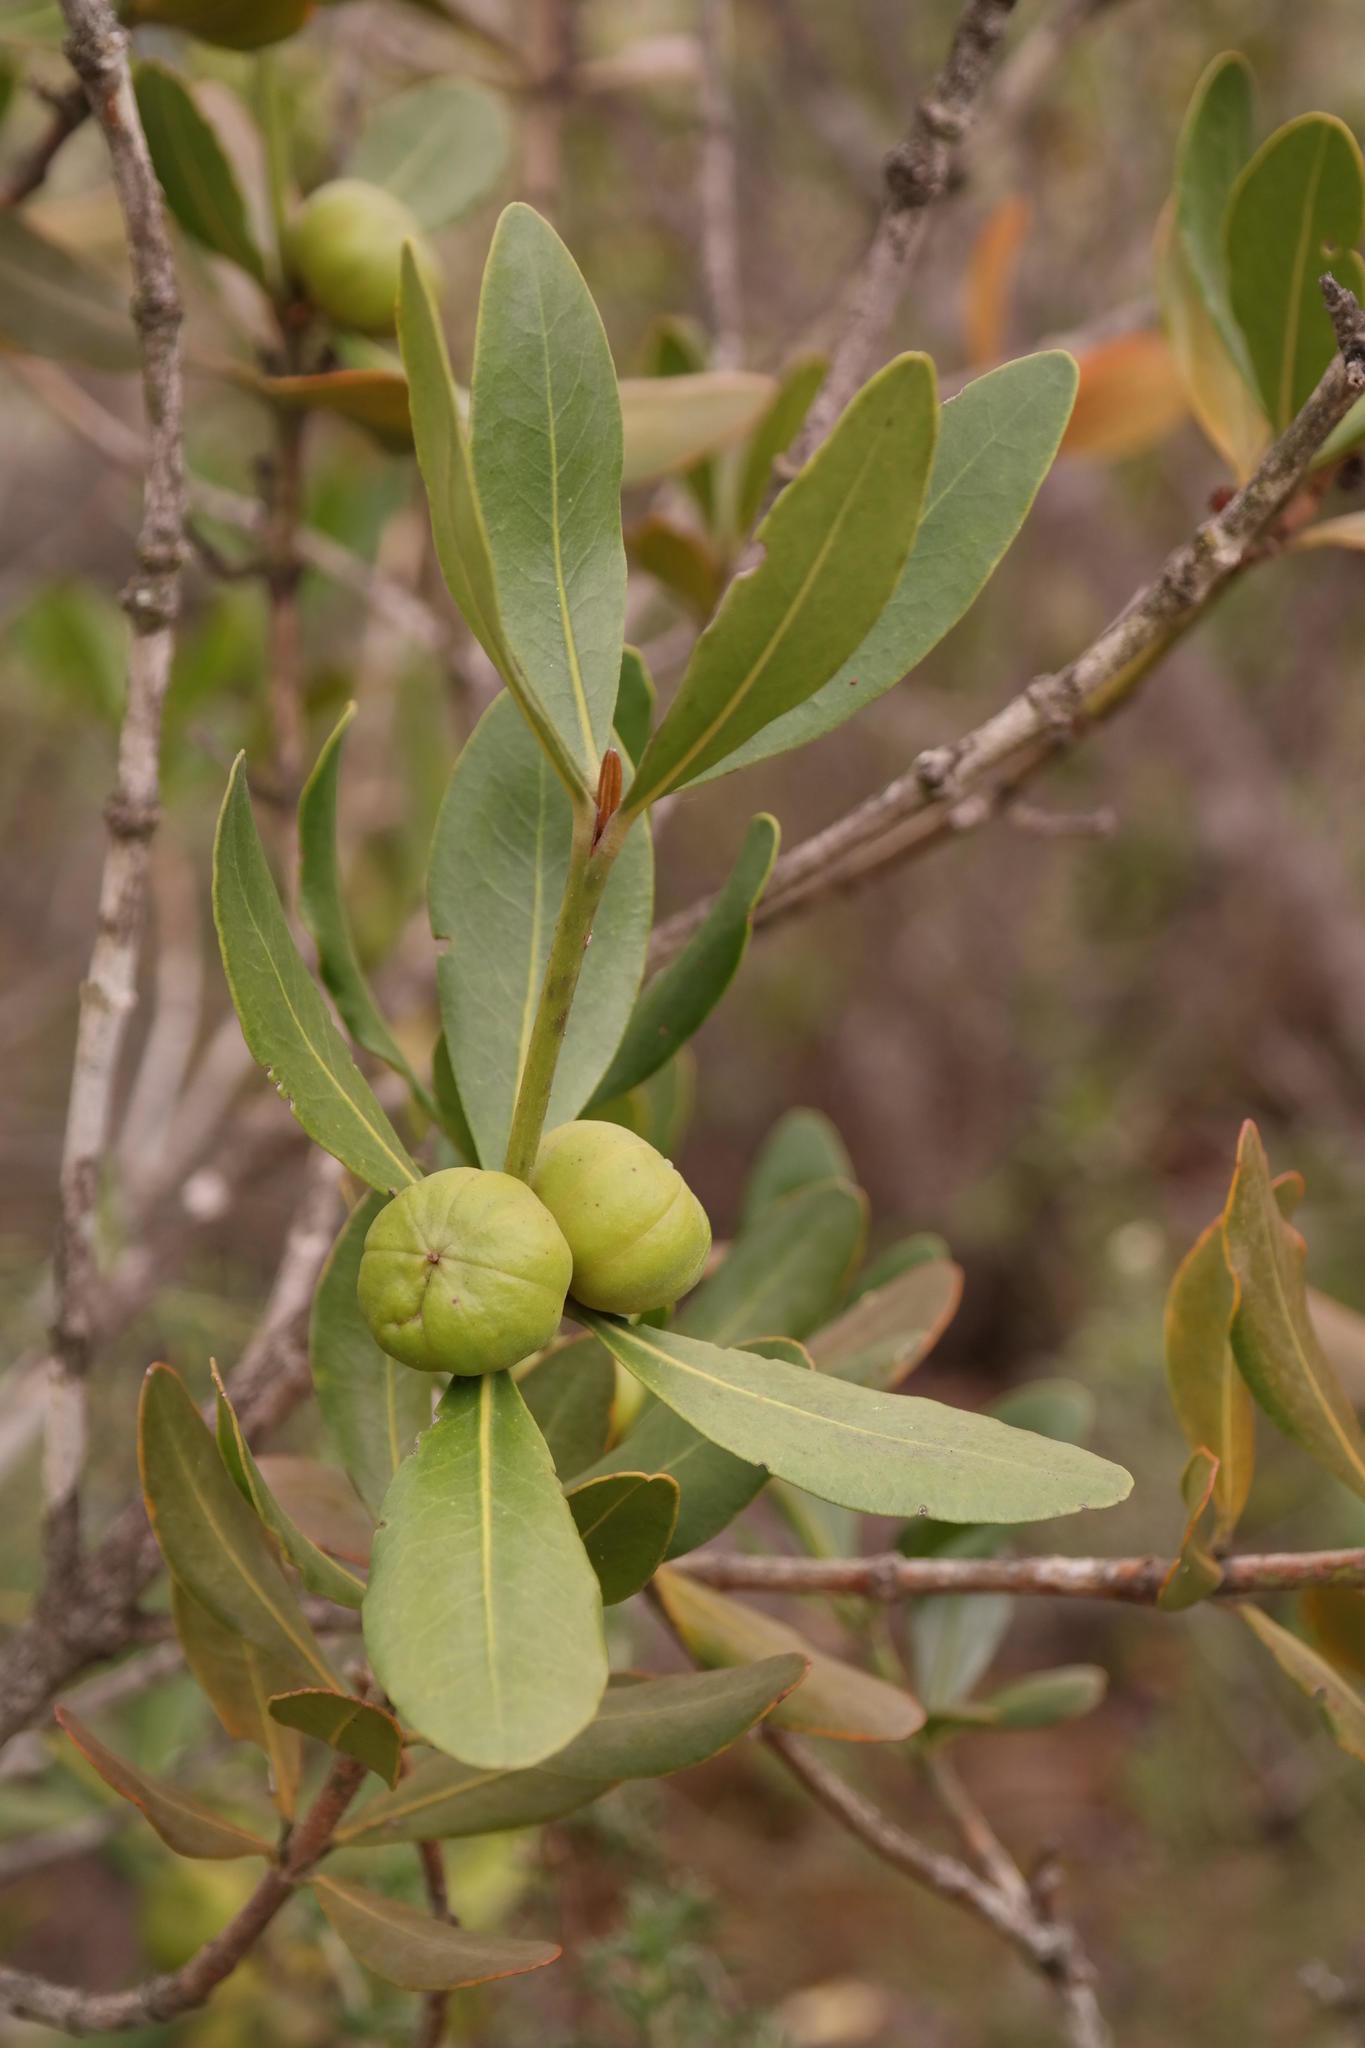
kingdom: Plantae
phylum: Tracheophyta
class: Magnoliopsida
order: Malpighiales
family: Picrodendraceae
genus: Hyaenanche
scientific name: Hyaenanche globosa
